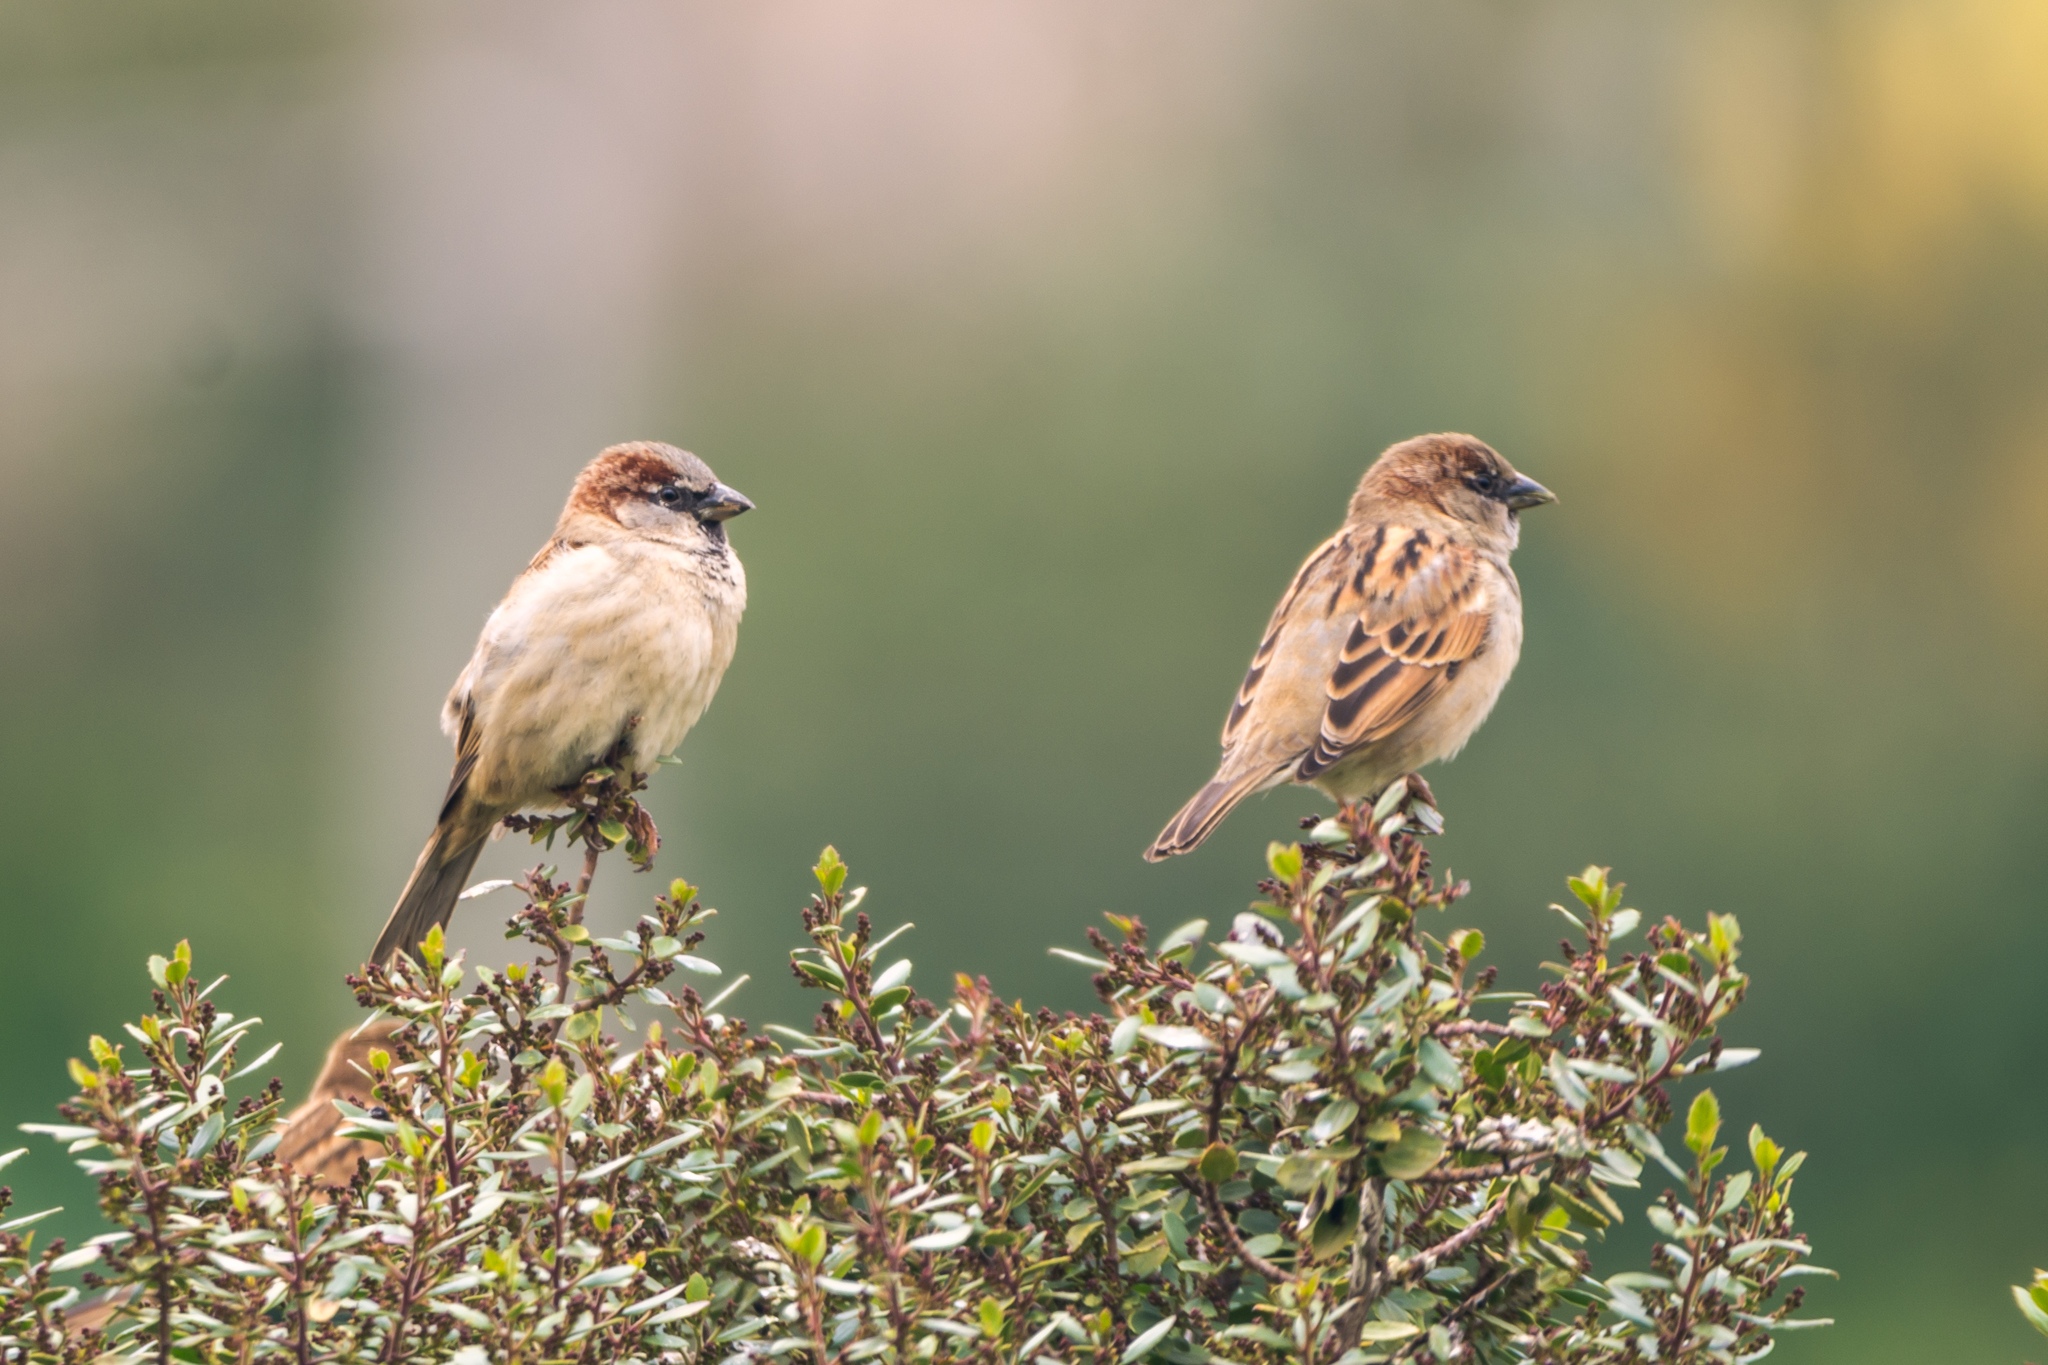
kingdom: Animalia
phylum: Chordata
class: Aves
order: Passeriformes
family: Passeridae
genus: Passer
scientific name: Passer domesticus
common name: House sparrow
